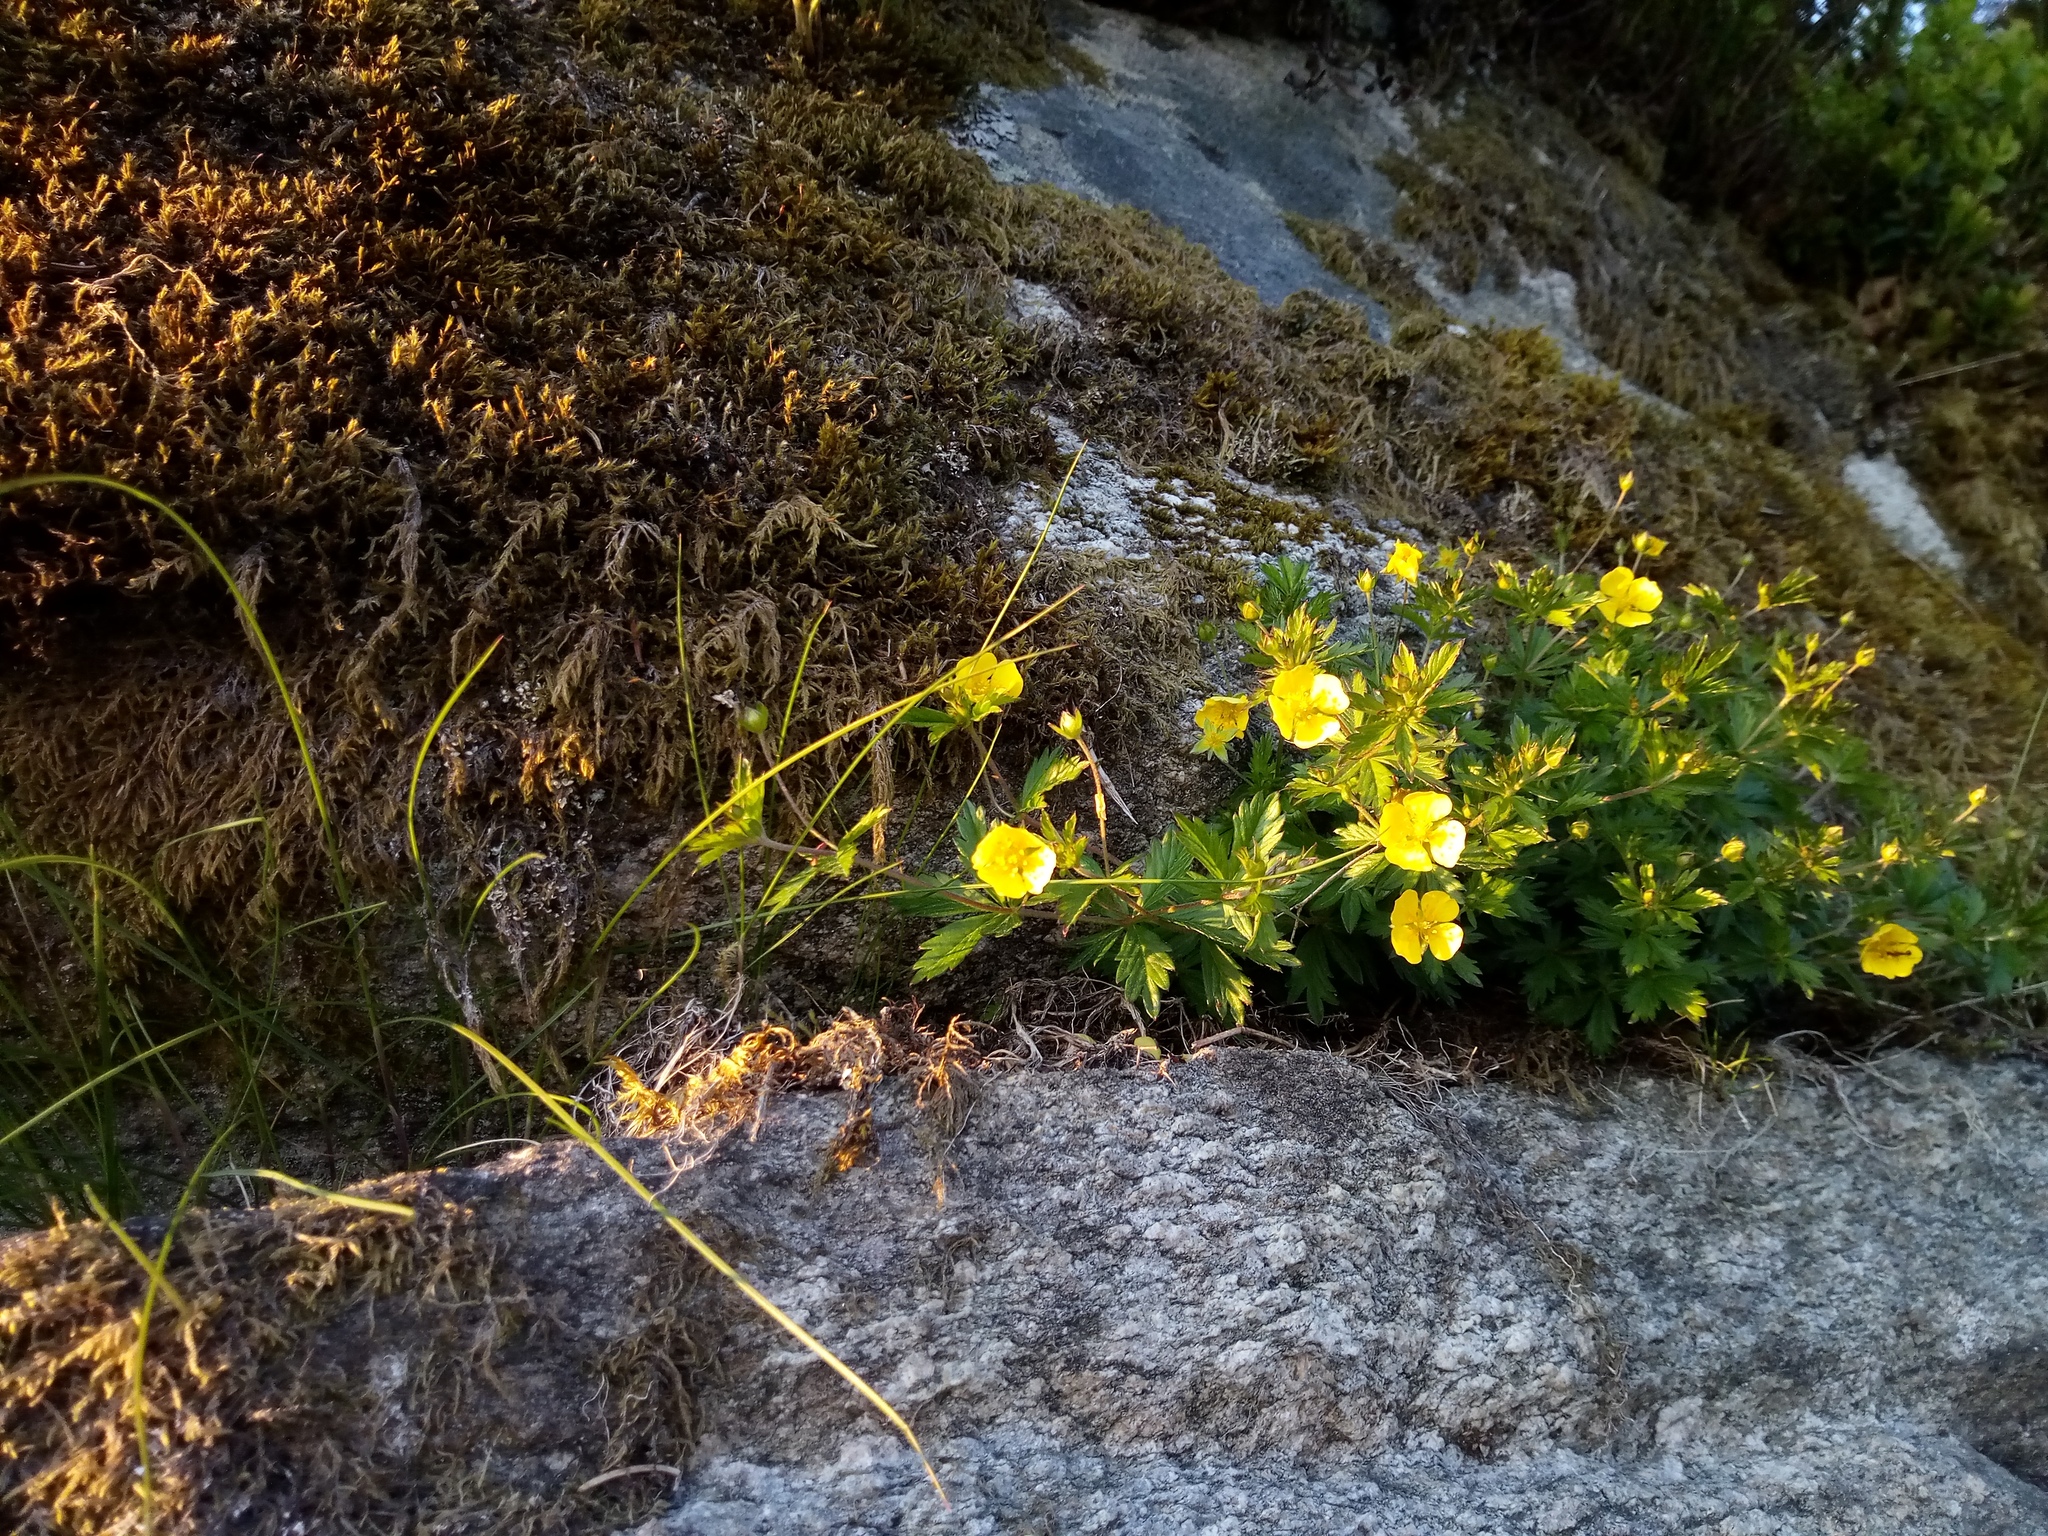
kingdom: Plantae
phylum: Tracheophyta
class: Magnoliopsida
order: Rosales
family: Rosaceae
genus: Potentilla
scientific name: Potentilla erecta
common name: Tormentil
